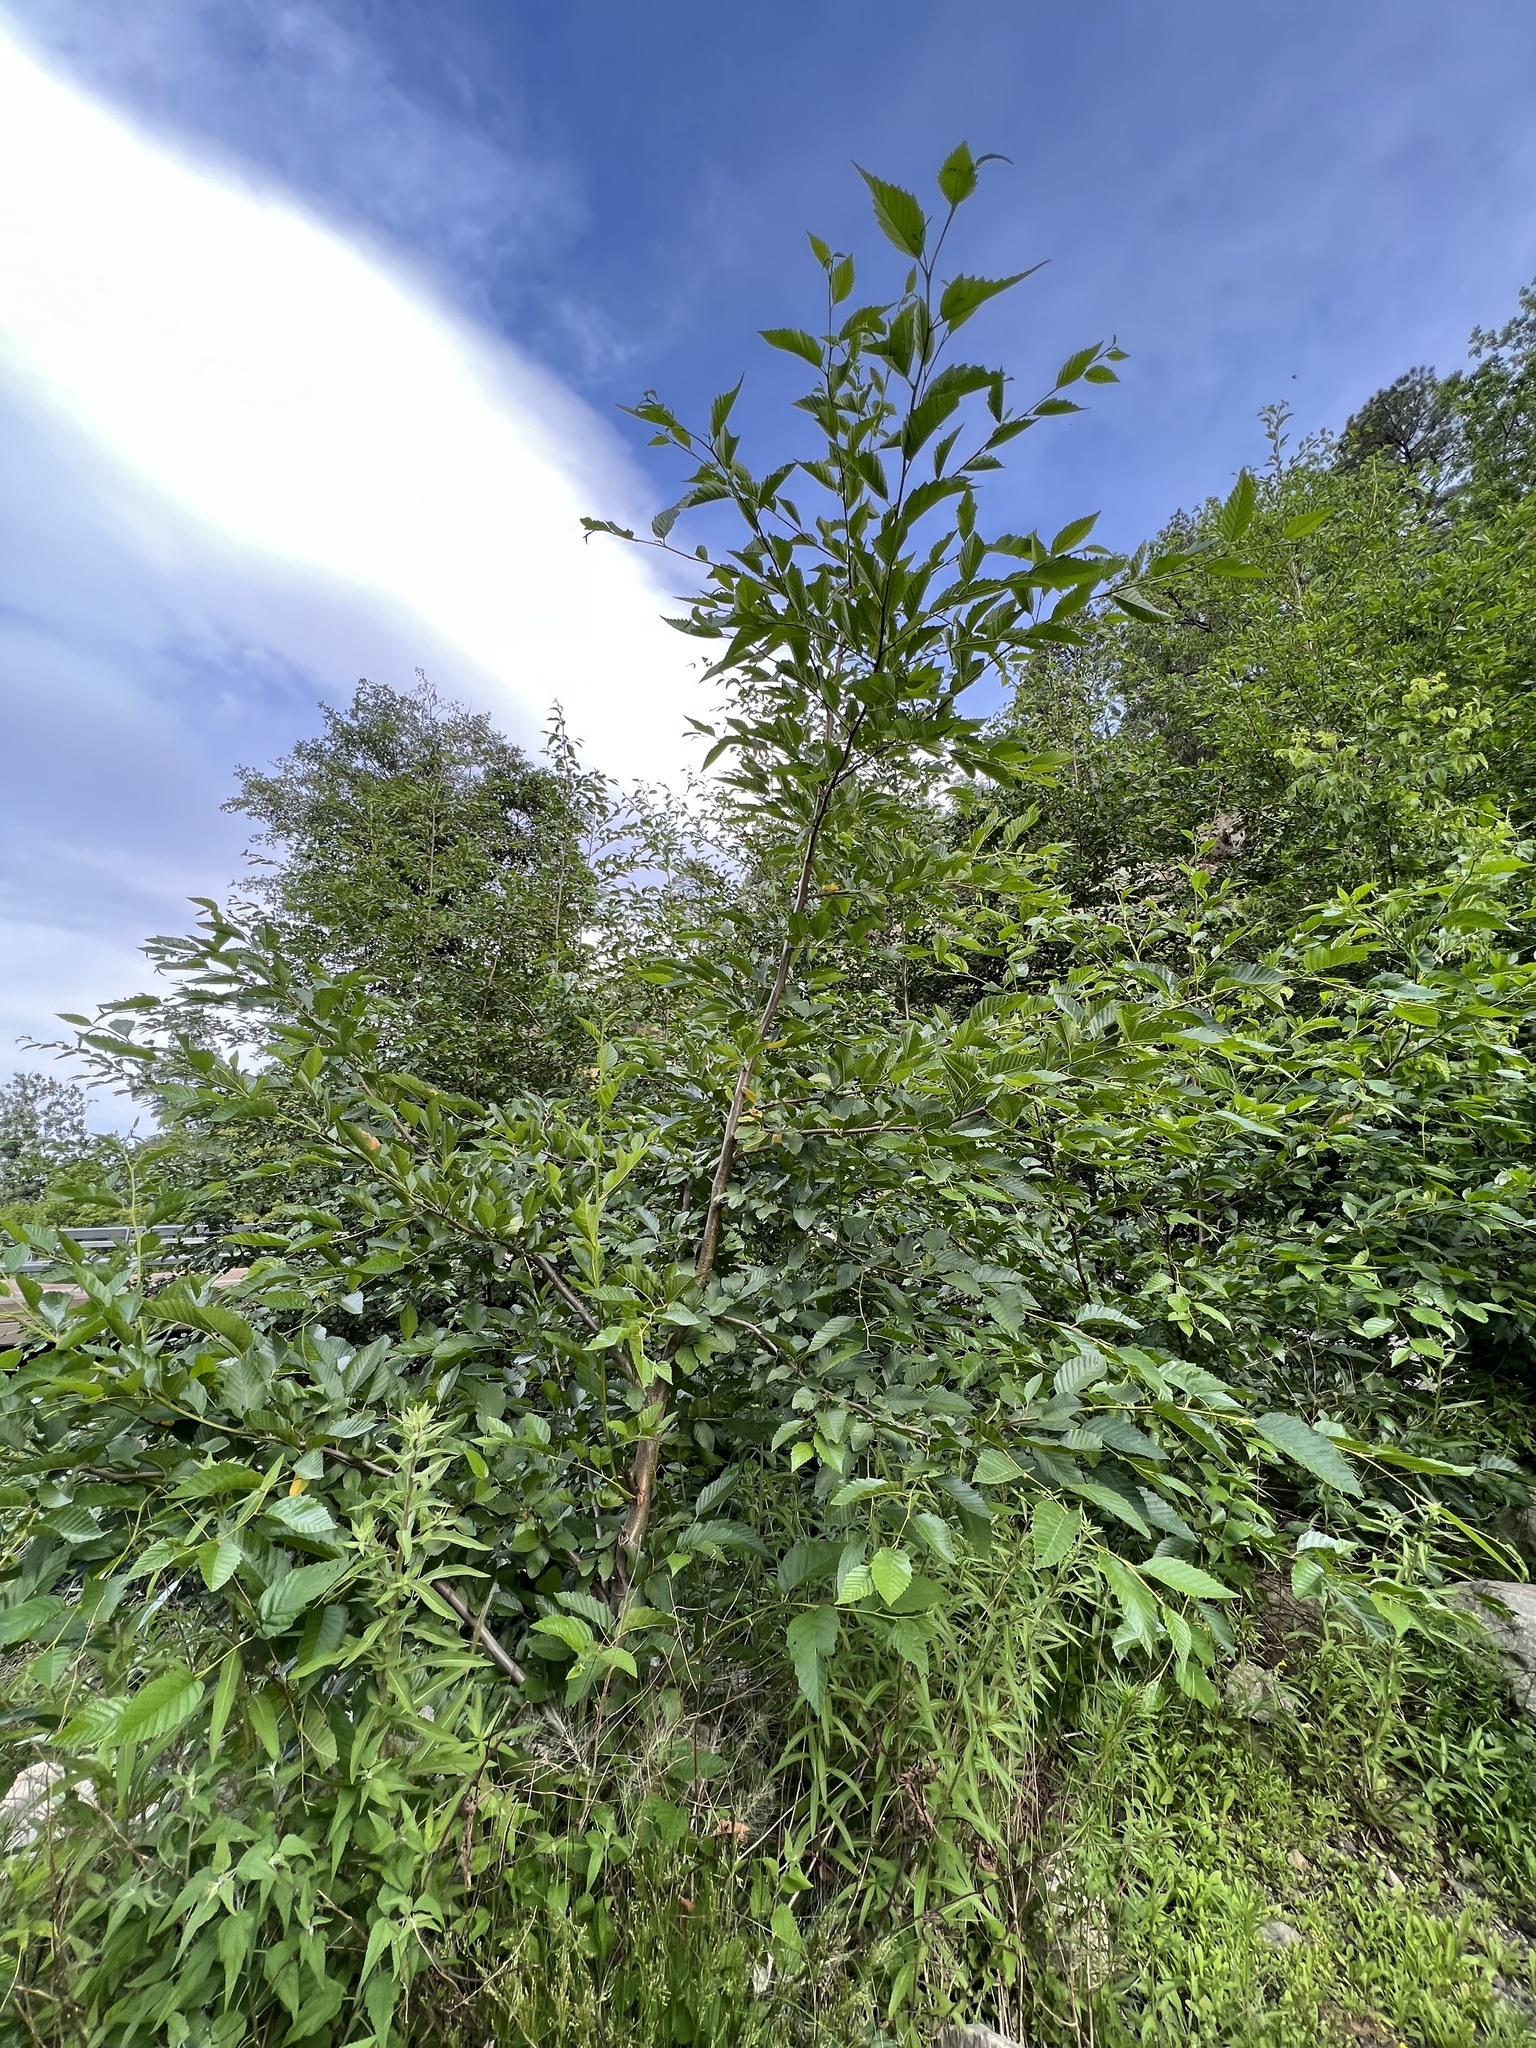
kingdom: Plantae
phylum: Tracheophyta
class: Magnoliopsida
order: Fagales
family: Betulaceae
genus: Alnus
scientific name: Alnus oblongifolia
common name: Arizona alder
